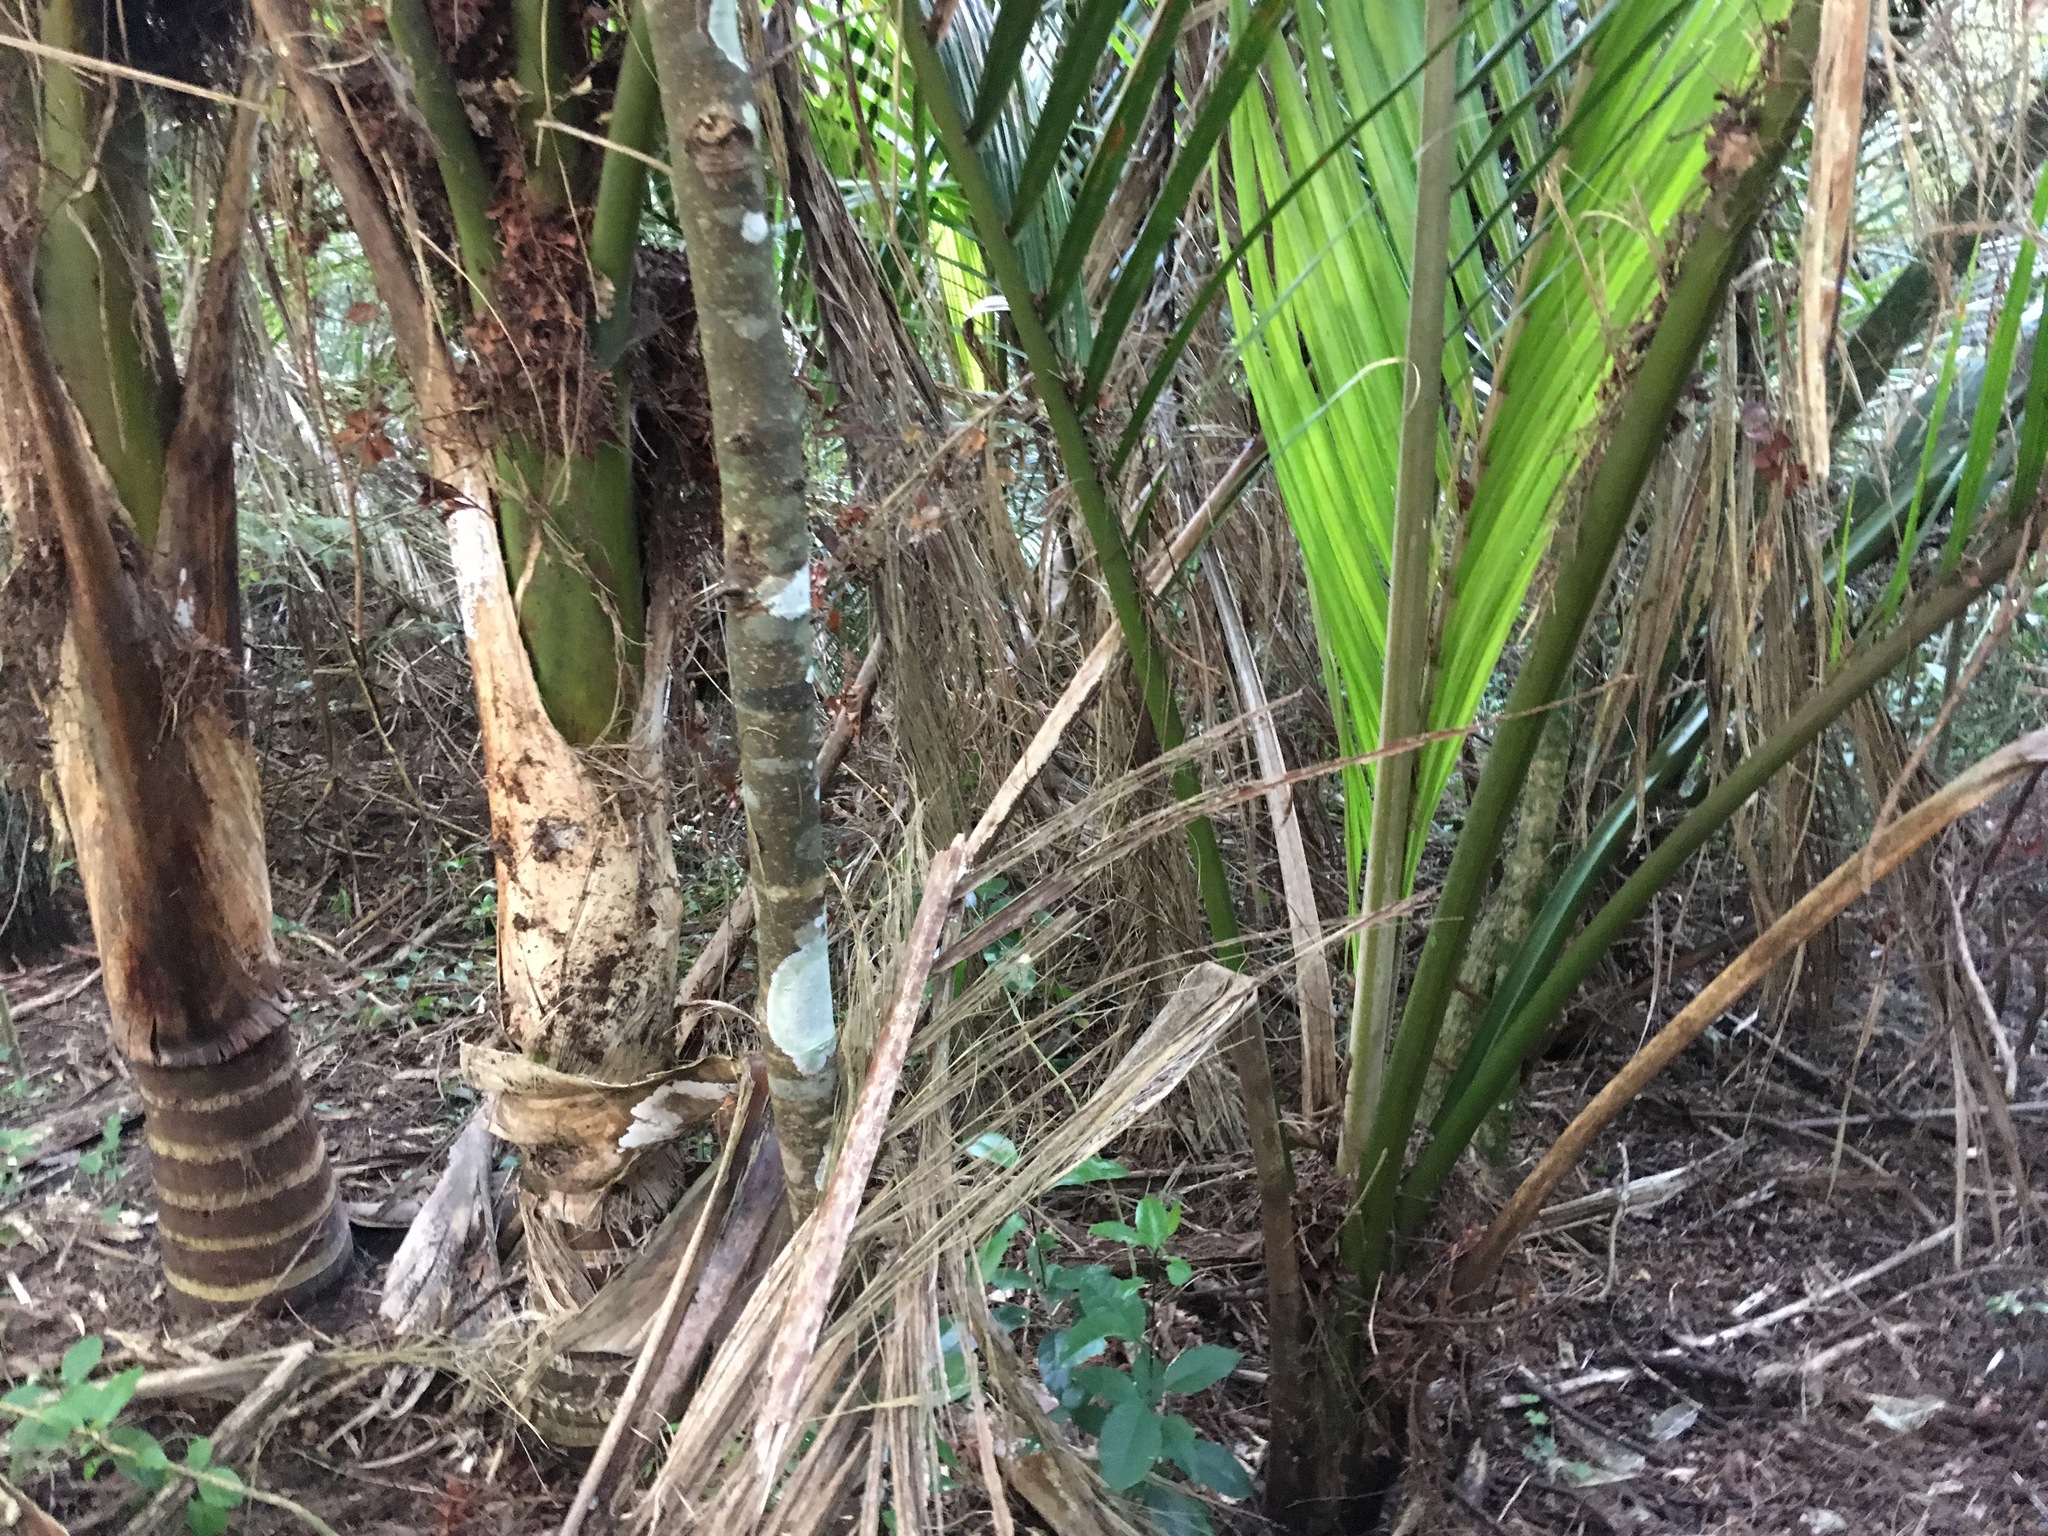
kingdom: Plantae
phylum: Tracheophyta
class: Liliopsida
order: Arecales
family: Arecaceae
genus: Rhopalostylis
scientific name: Rhopalostylis sapida
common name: Feather-duster palm
